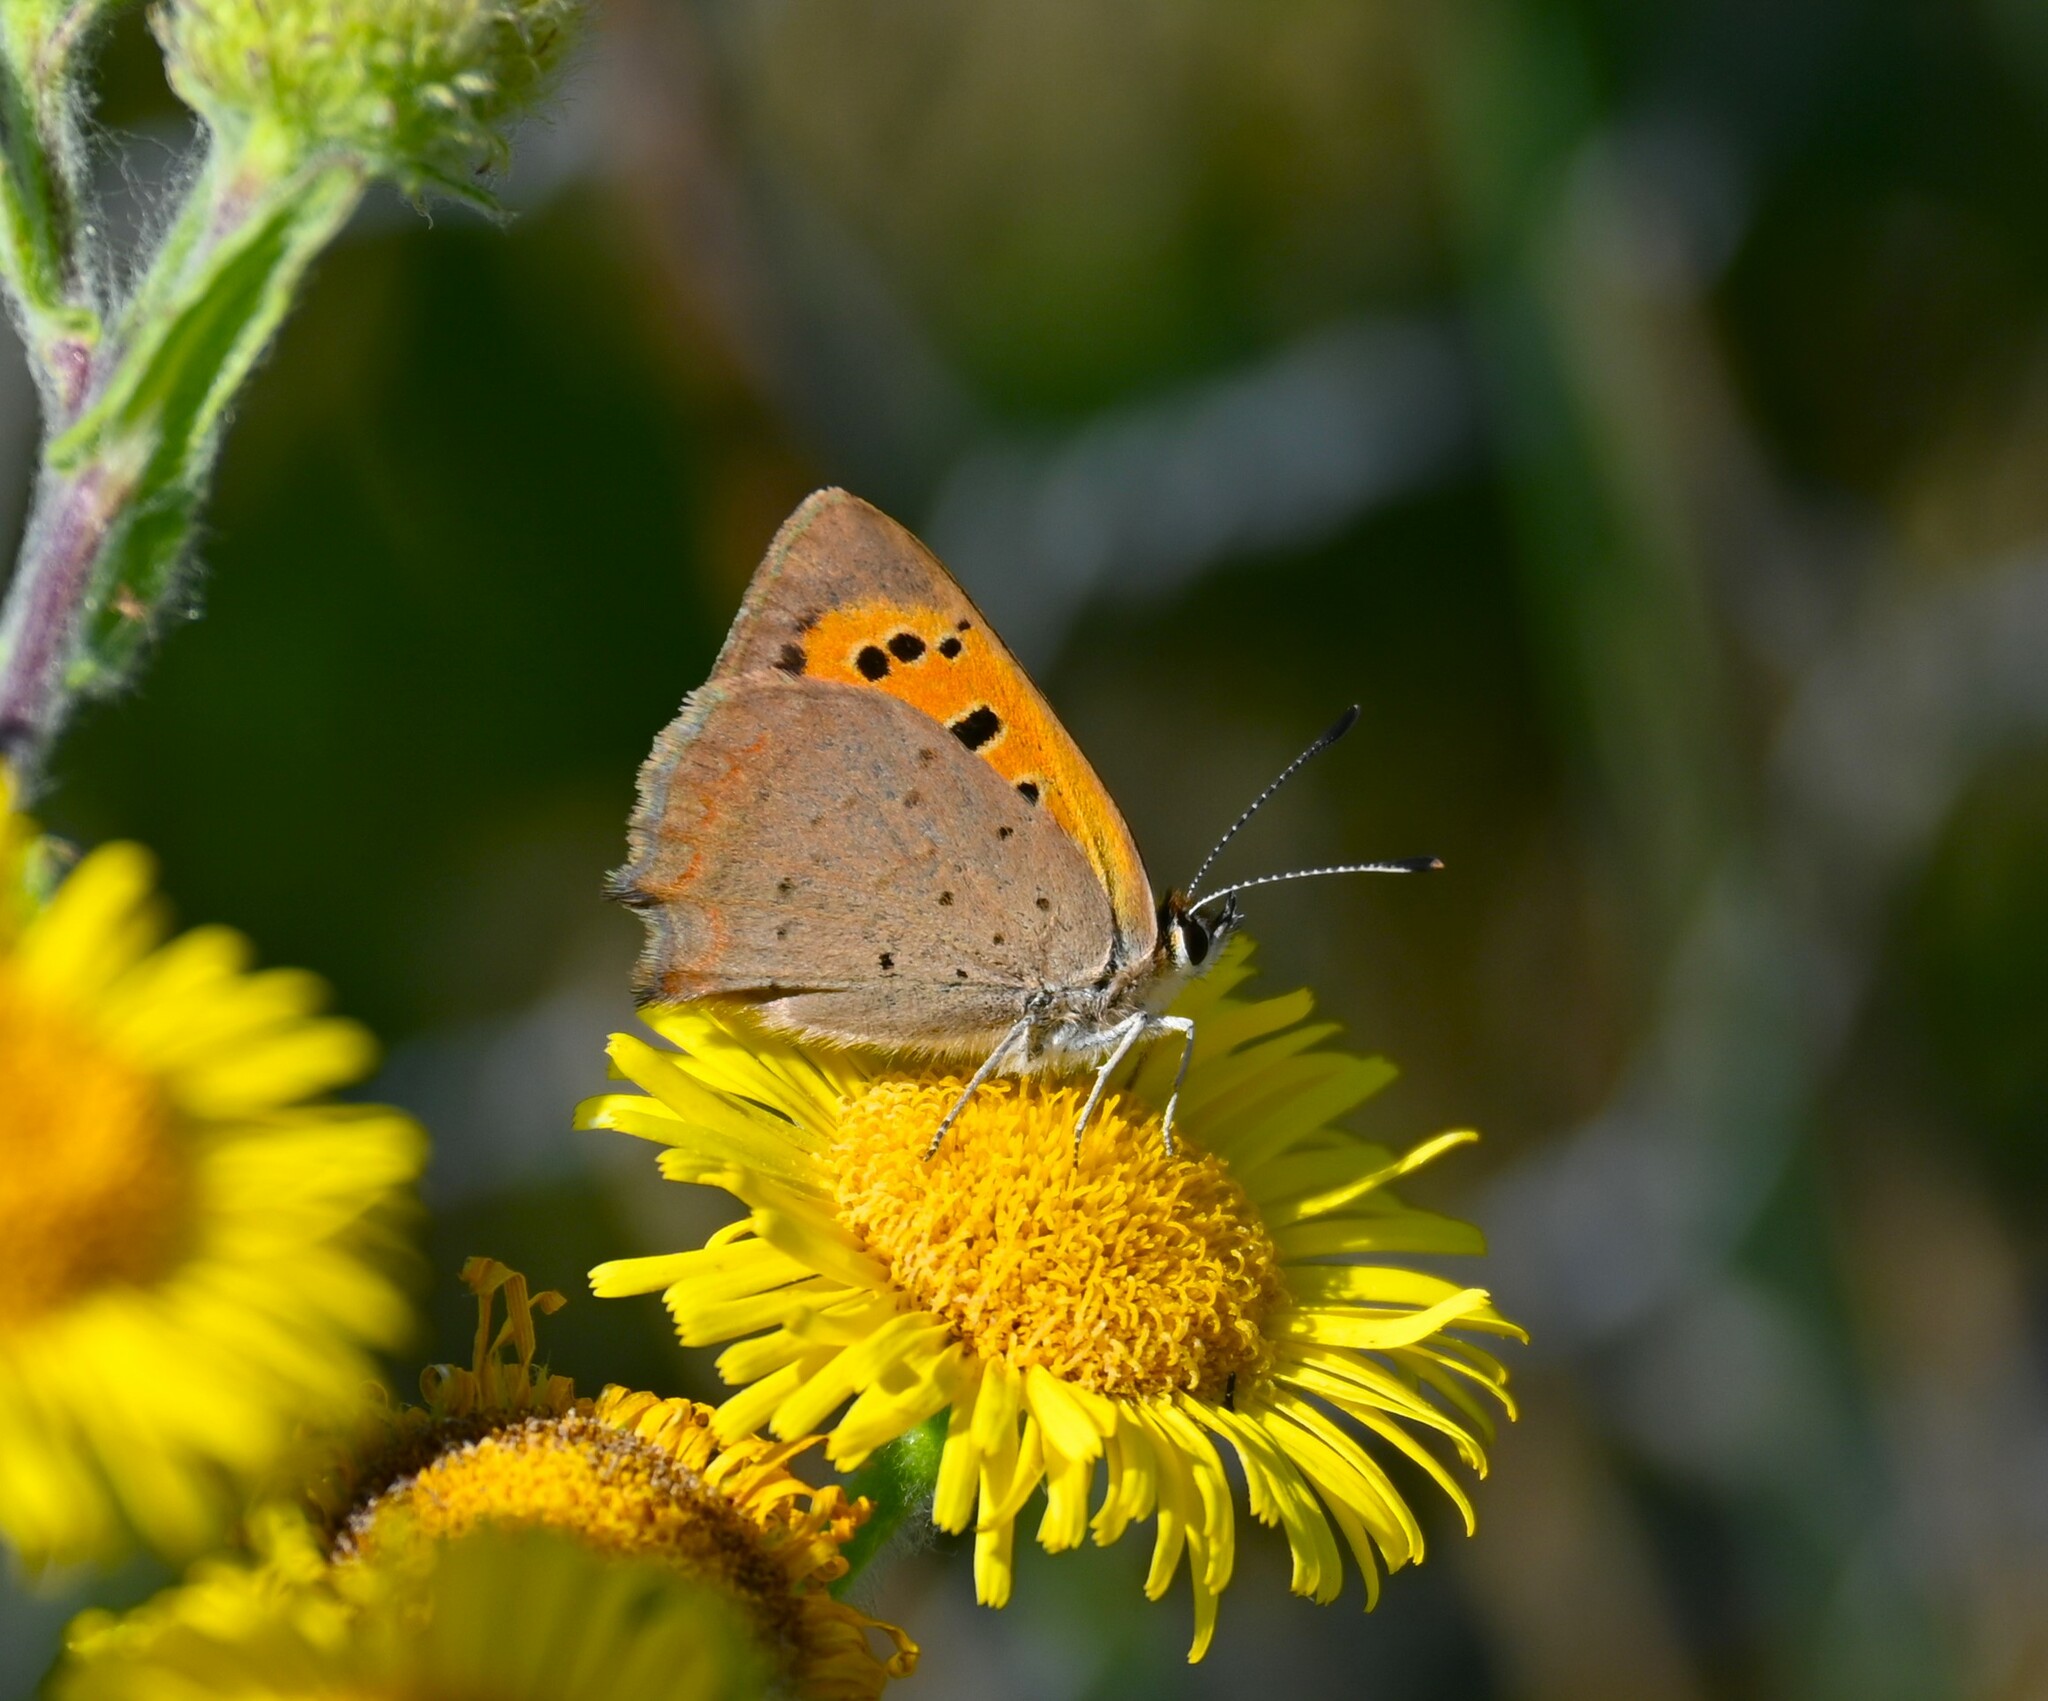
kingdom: Animalia
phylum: Arthropoda
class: Insecta
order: Lepidoptera
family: Lycaenidae
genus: Lycaena
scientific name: Lycaena phlaeas
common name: Small copper
